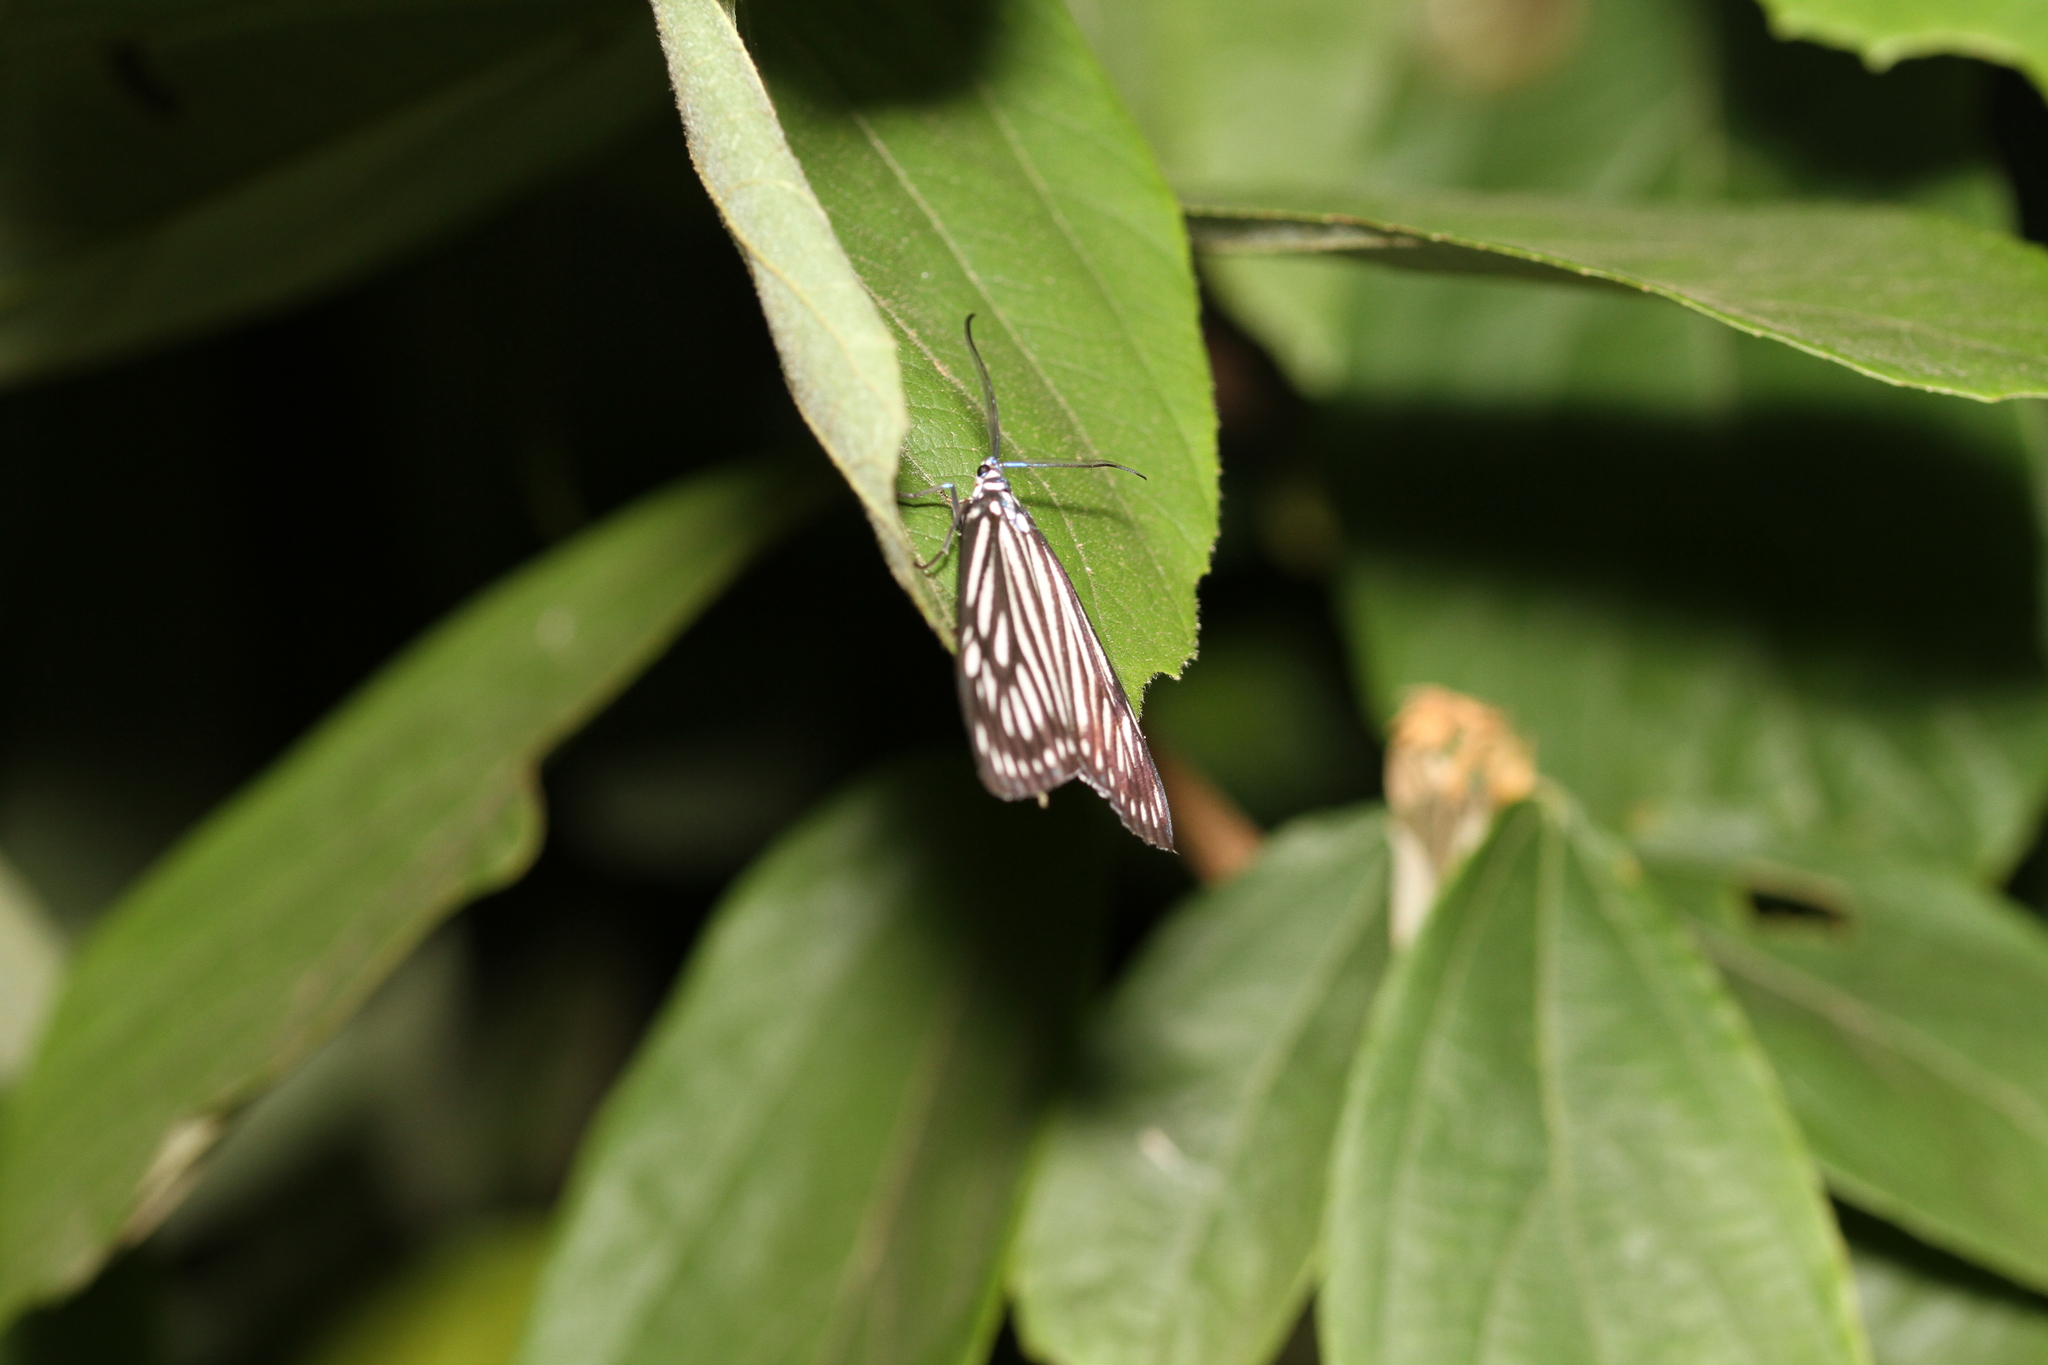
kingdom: Animalia
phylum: Arthropoda
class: Insecta
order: Lepidoptera
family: Zygaenidae
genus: Cyclosia
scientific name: Cyclosia papilionaris
